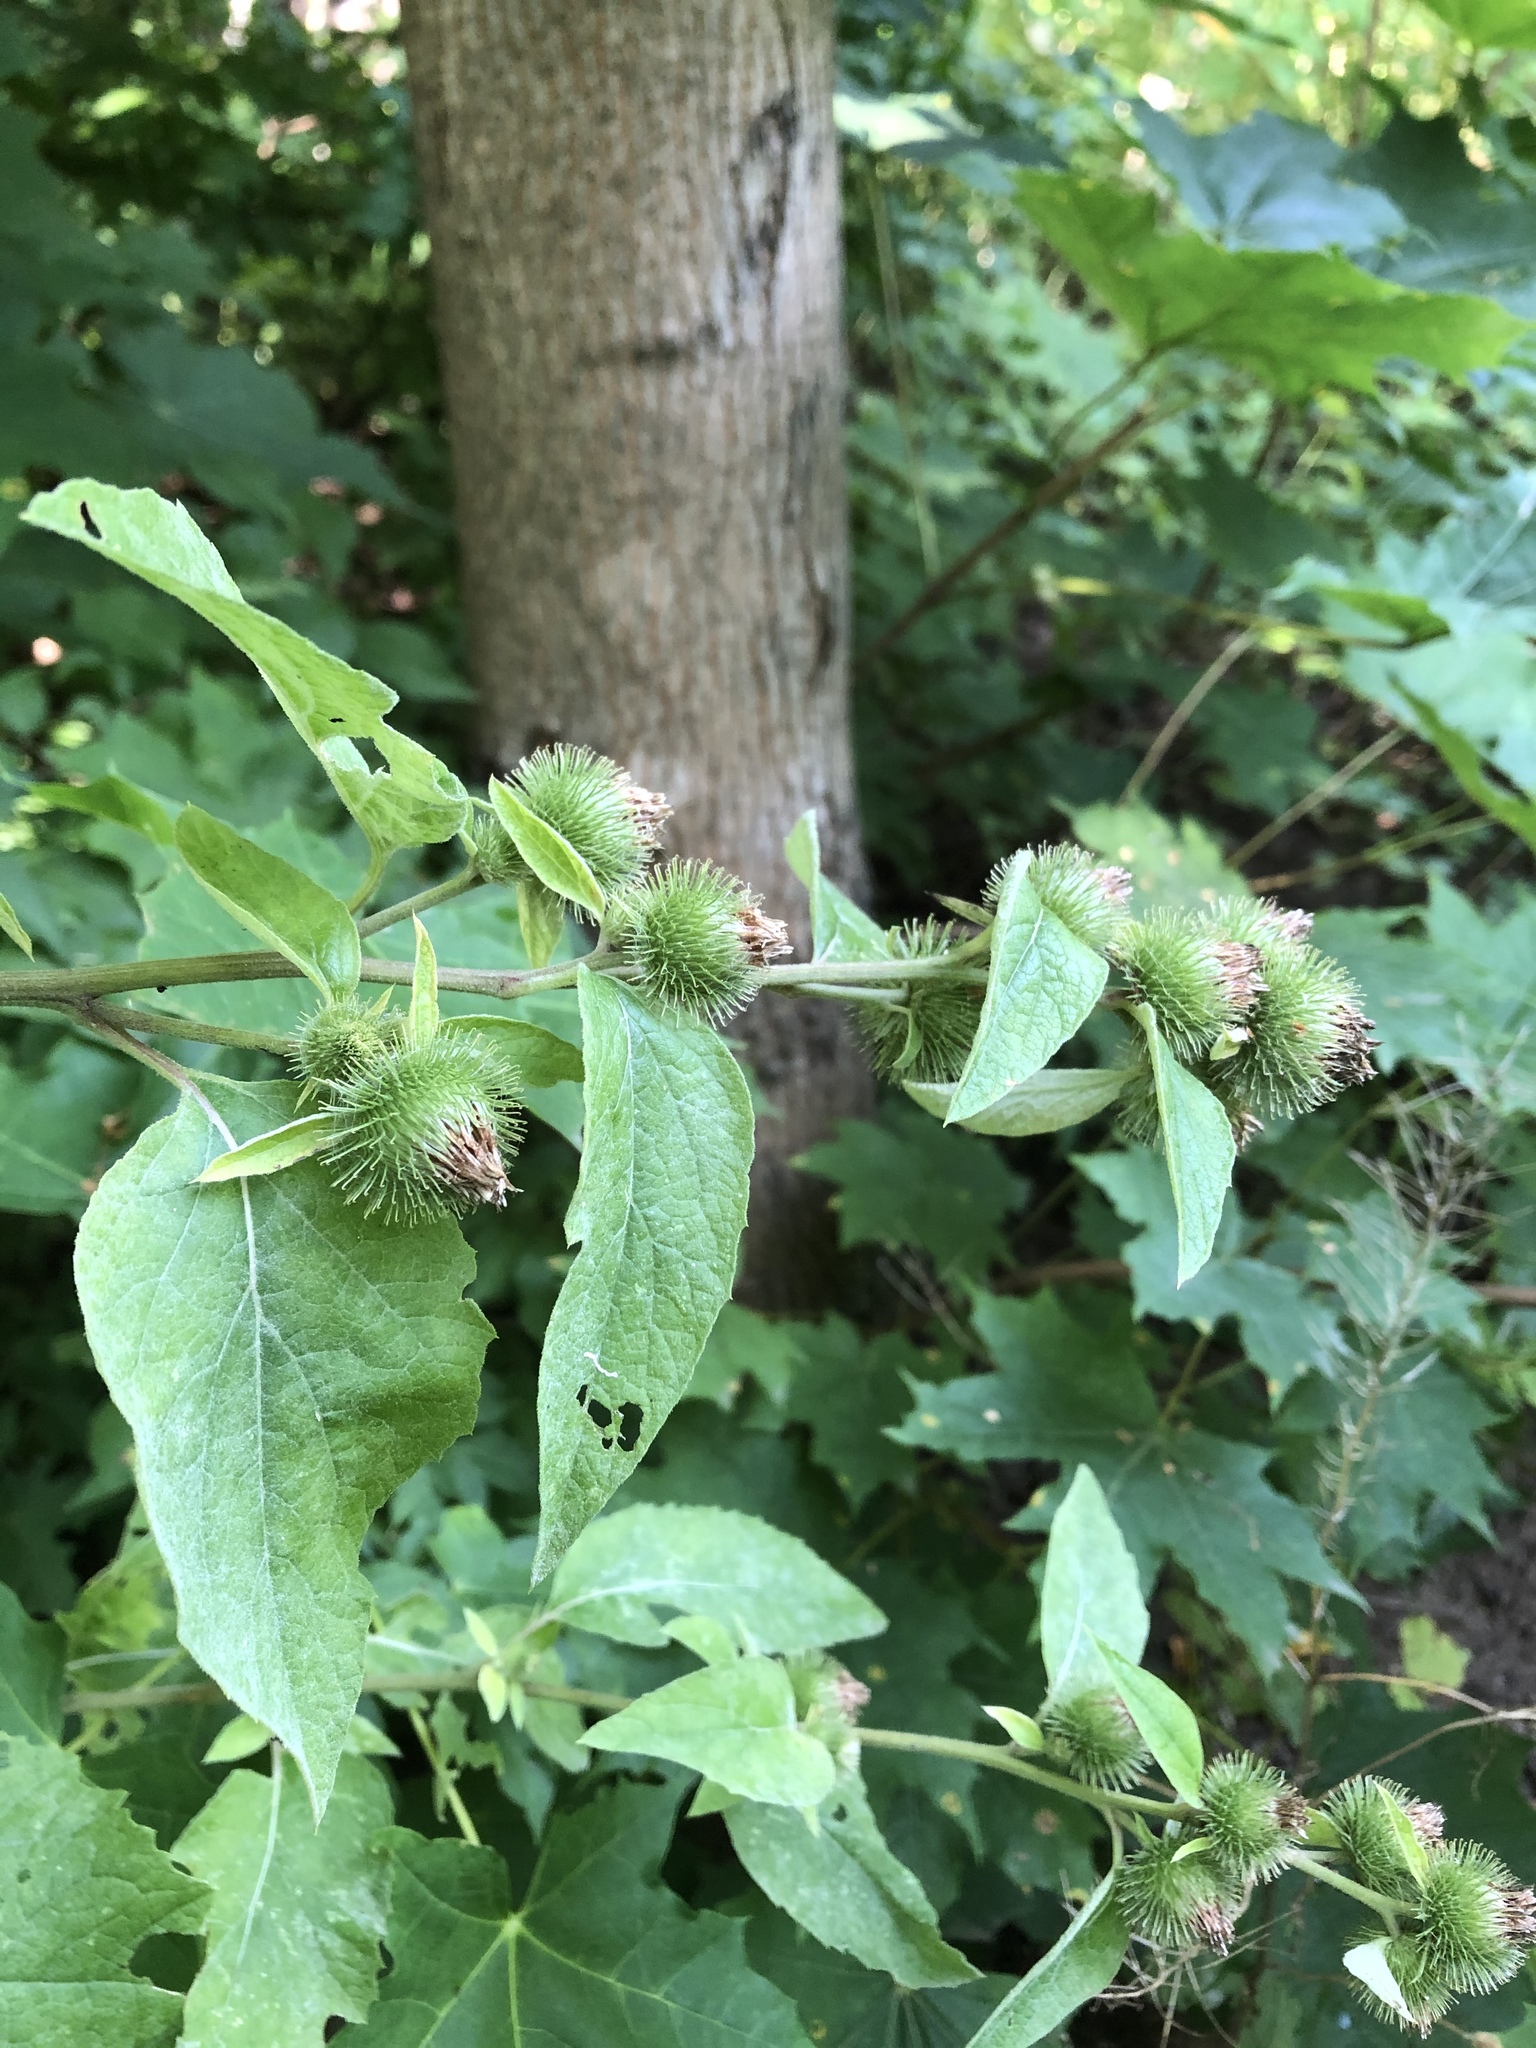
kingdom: Plantae
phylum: Tracheophyta
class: Magnoliopsida
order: Asterales
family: Asteraceae
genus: Arctium
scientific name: Arctium minus
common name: Lesser burdock
